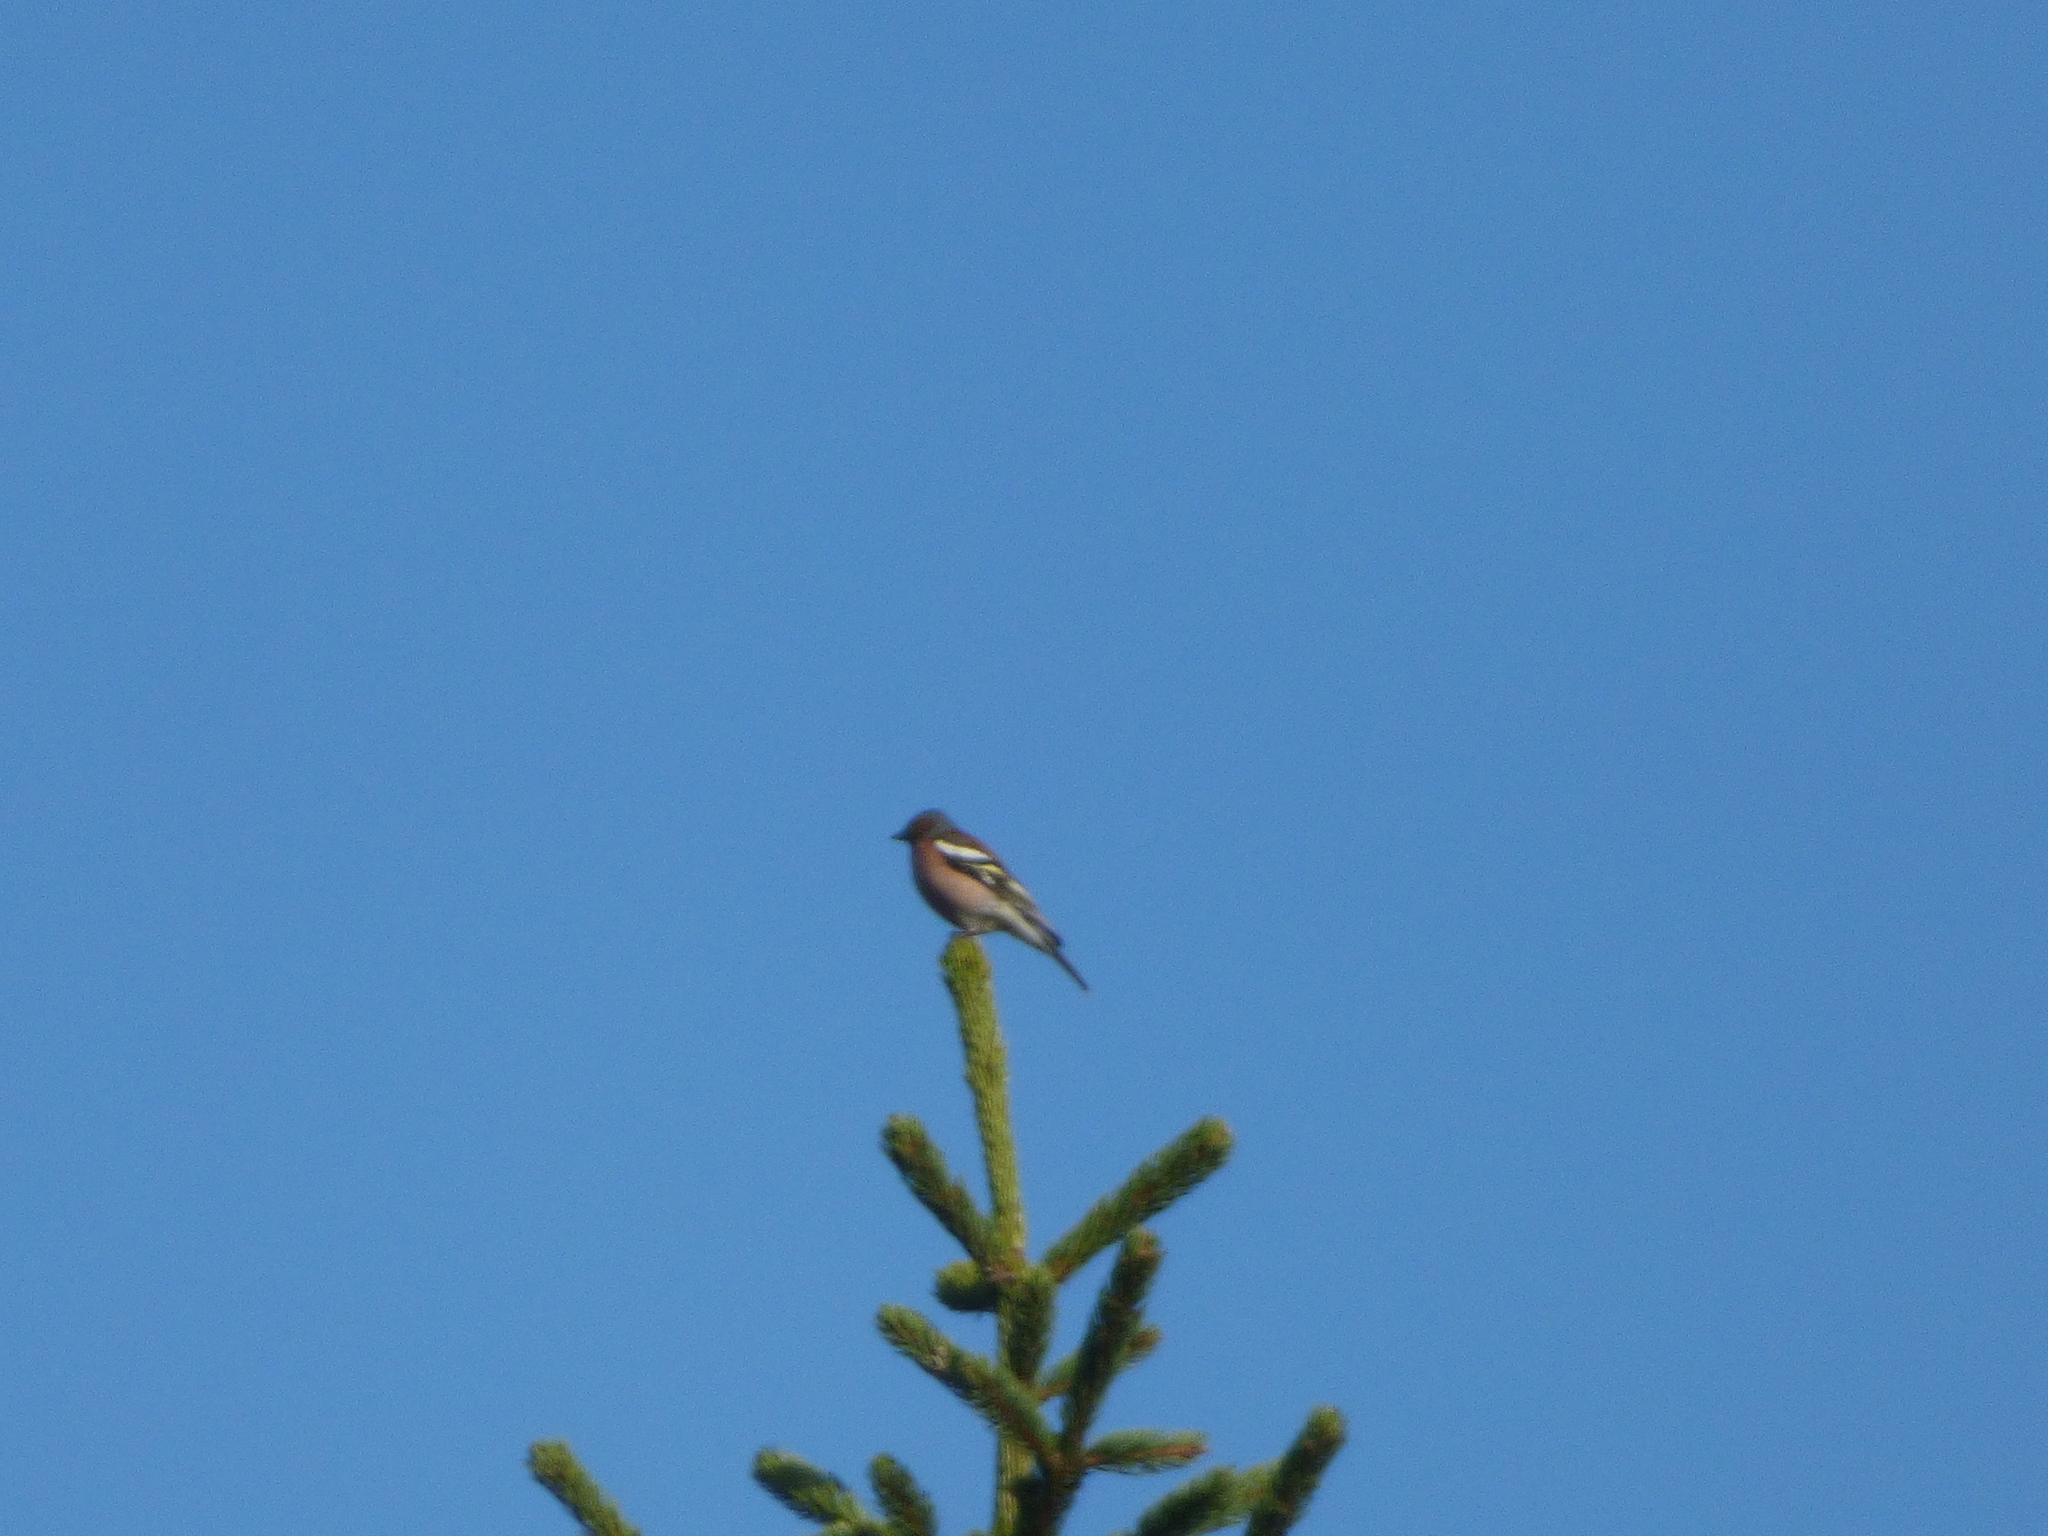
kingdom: Animalia
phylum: Chordata
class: Aves
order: Passeriformes
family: Fringillidae
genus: Fringilla
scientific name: Fringilla coelebs
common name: Common chaffinch
